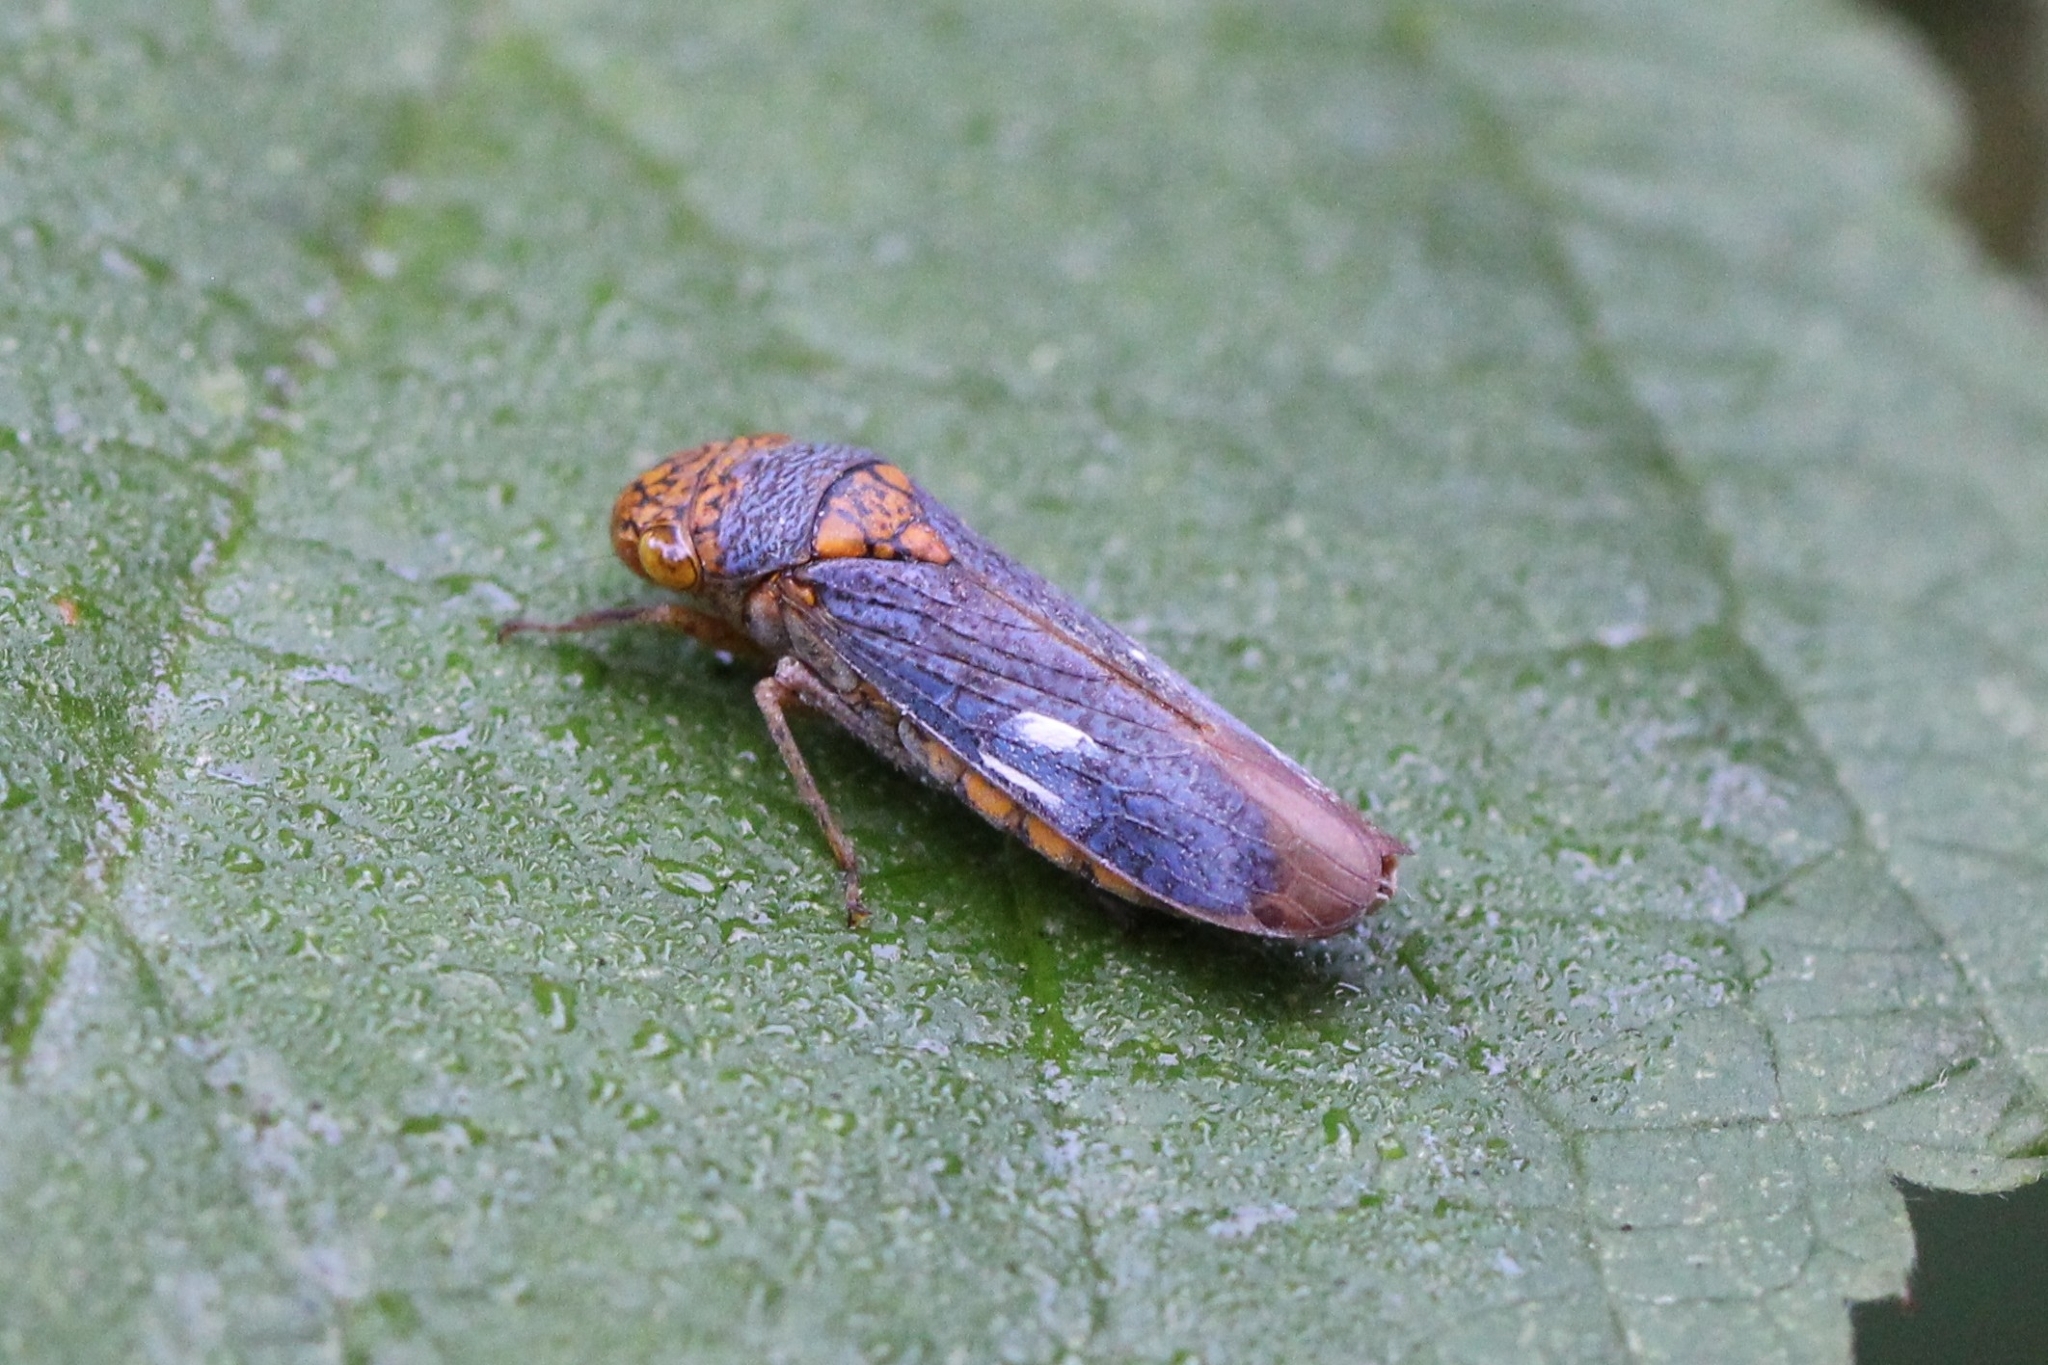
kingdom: Animalia
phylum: Arthropoda
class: Insecta
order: Hemiptera
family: Cicadellidae
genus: Oncometopia
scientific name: Oncometopia orbona
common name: Broad-headed sharpshooter
